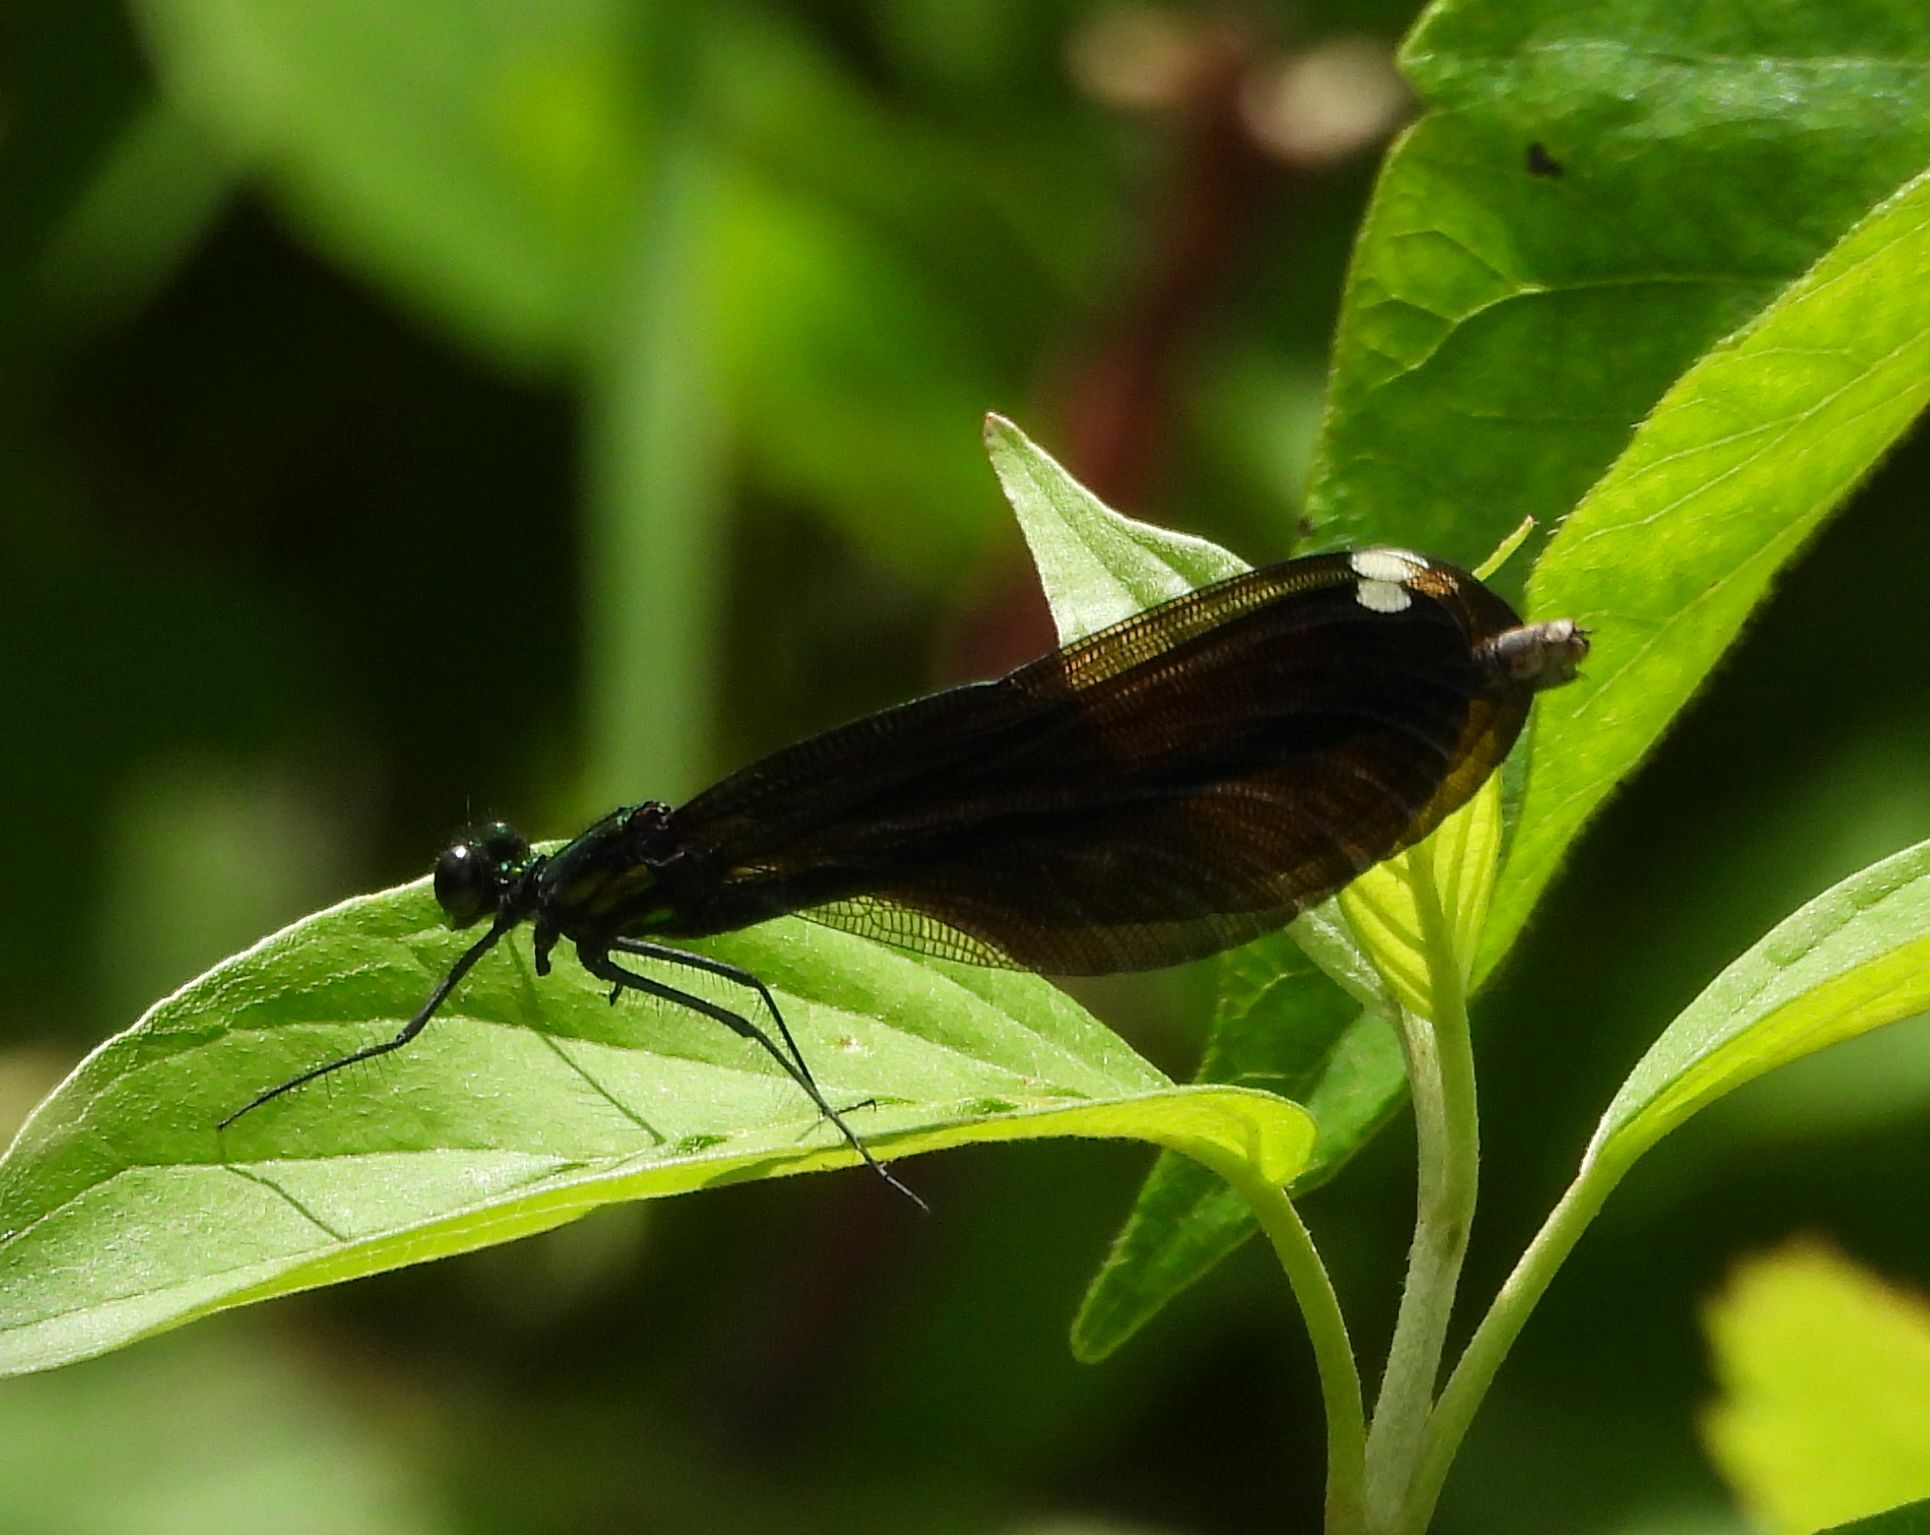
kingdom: Animalia
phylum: Arthropoda
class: Insecta
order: Odonata
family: Calopterygidae
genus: Calopteryx
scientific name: Calopteryx maculata
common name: Ebony jewelwing
